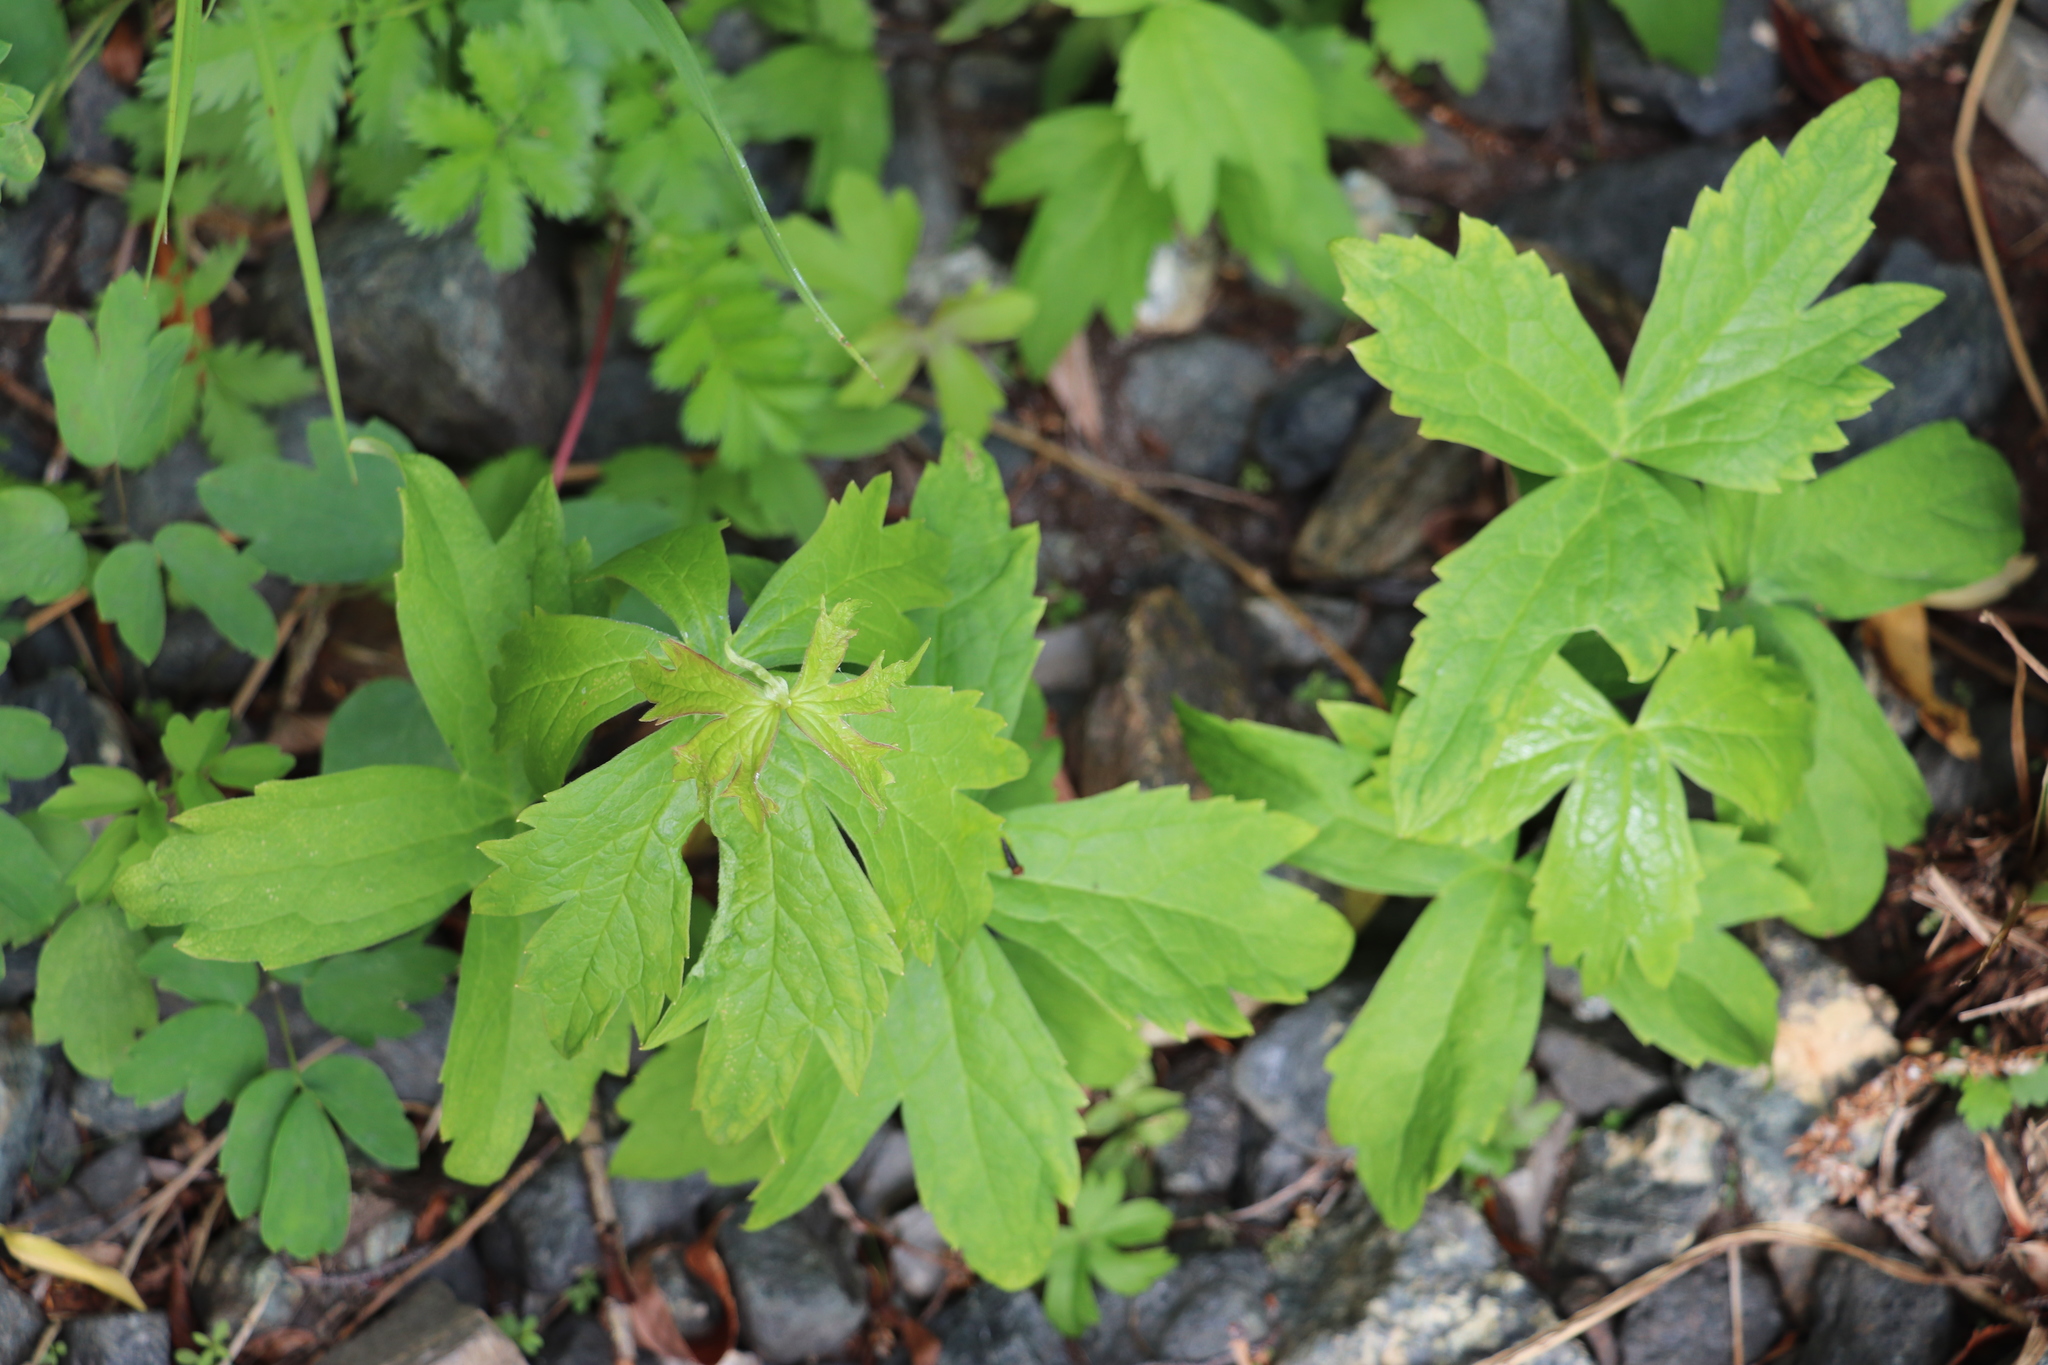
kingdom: Plantae
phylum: Tracheophyta
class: Magnoliopsida
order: Ranunculales
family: Ranunculaceae
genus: Anemonastrum
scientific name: Anemonastrum dichotomum
